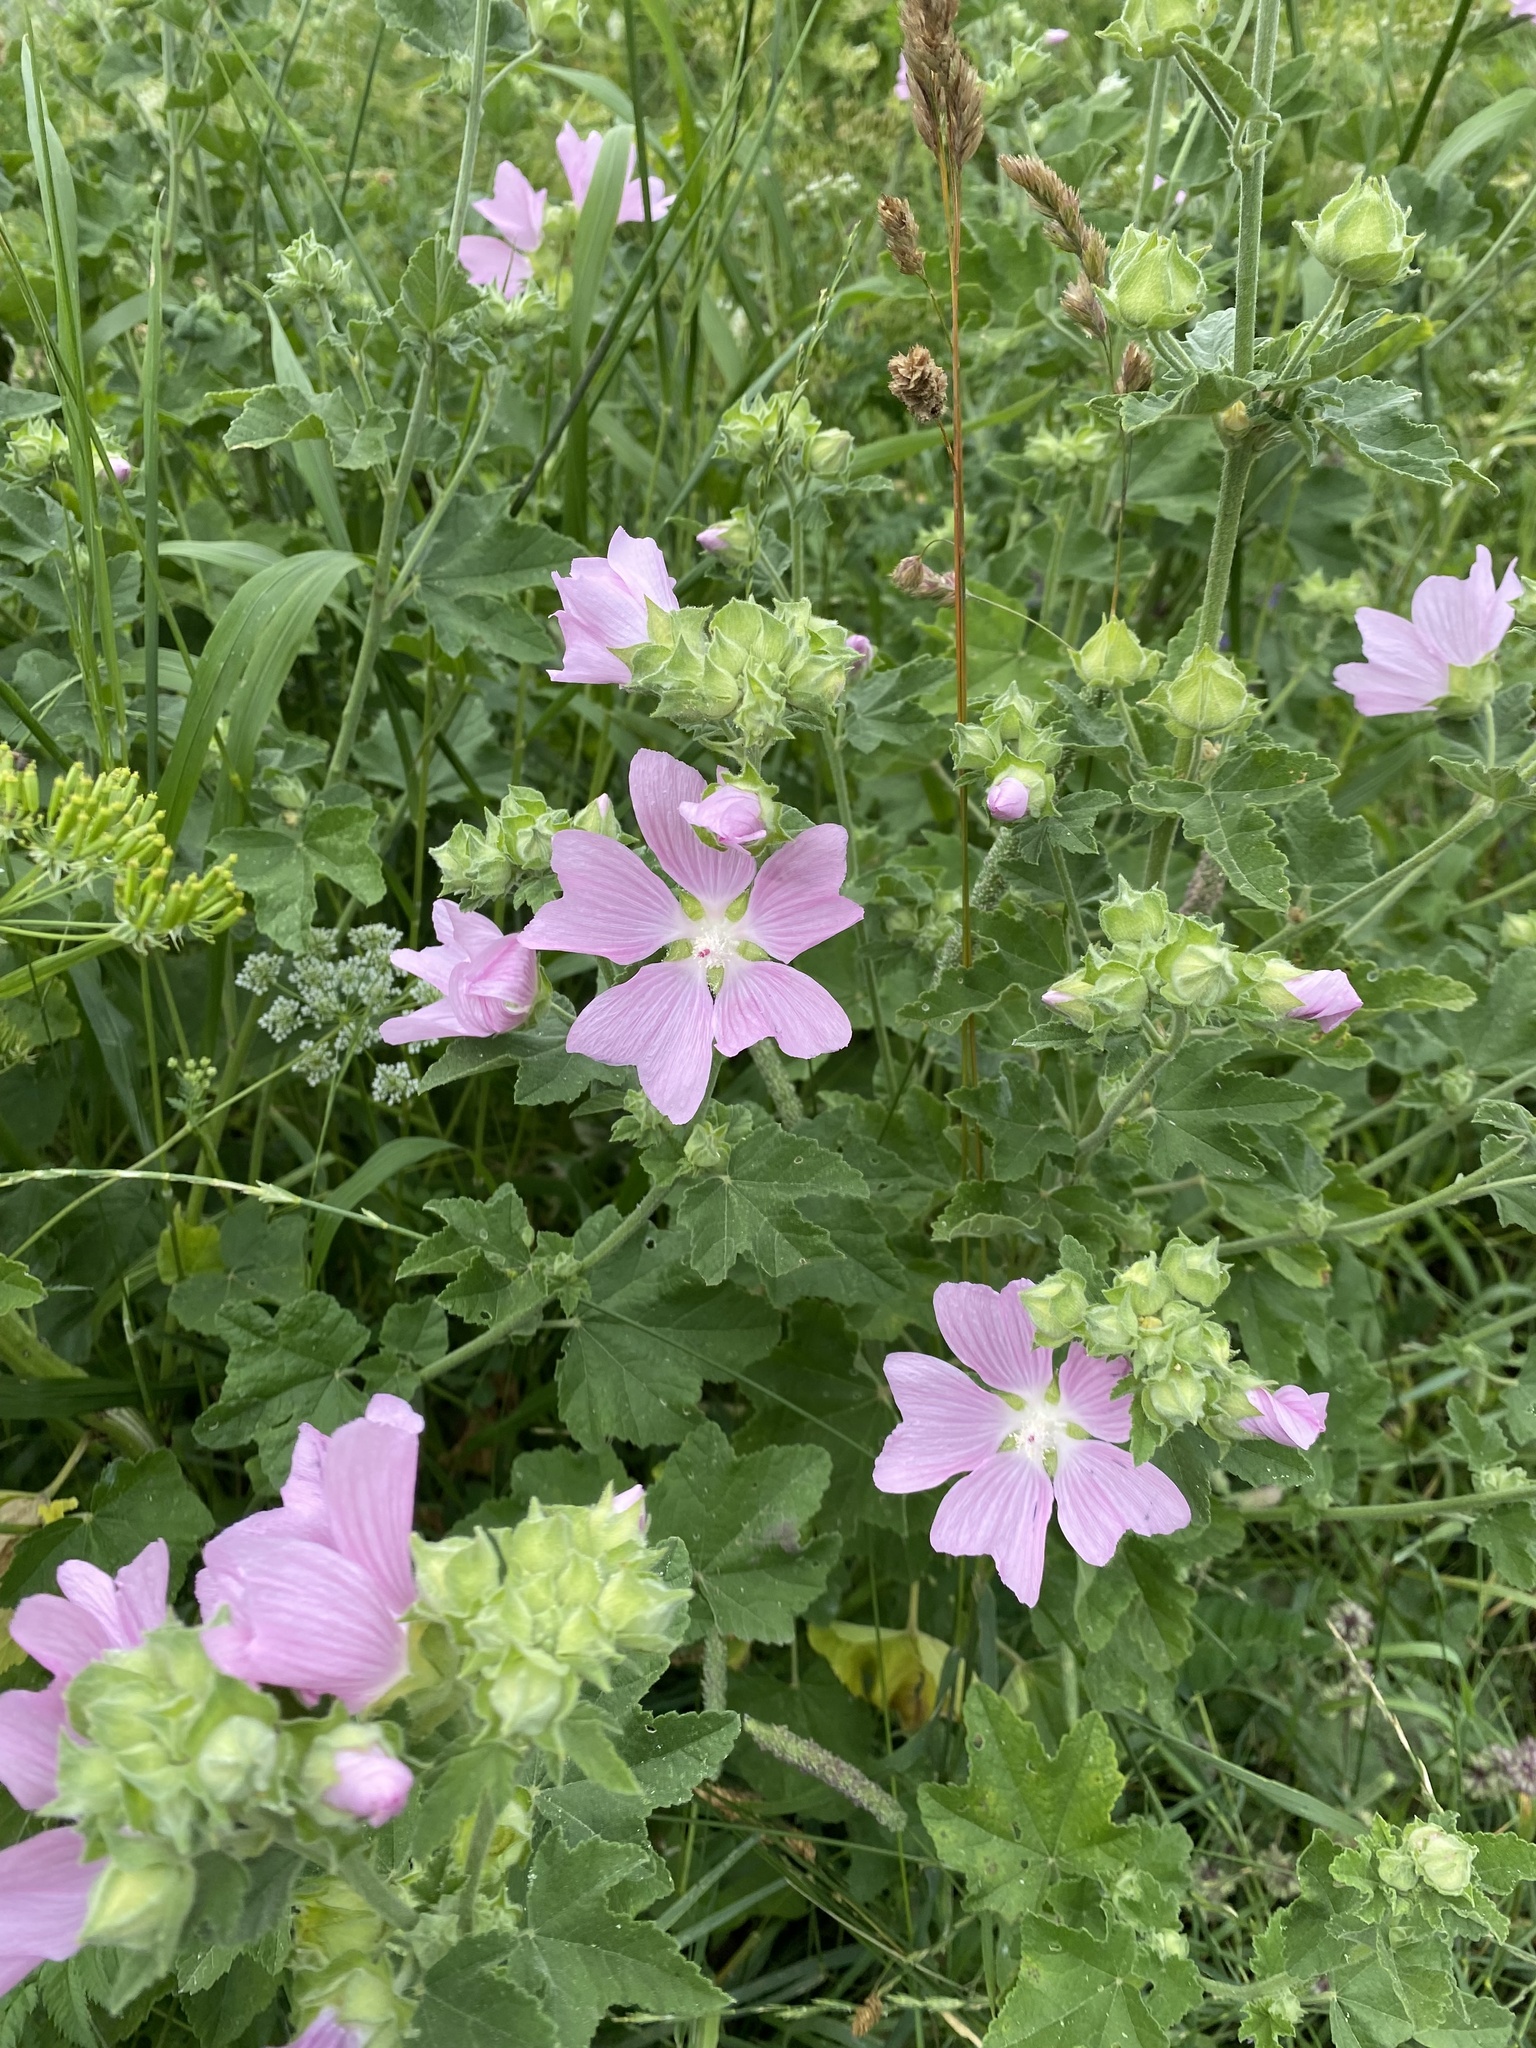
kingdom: Plantae
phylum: Tracheophyta
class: Magnoliopsida
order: Malvales
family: Malvaceae
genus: Malva
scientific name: Malva thuringiaca
